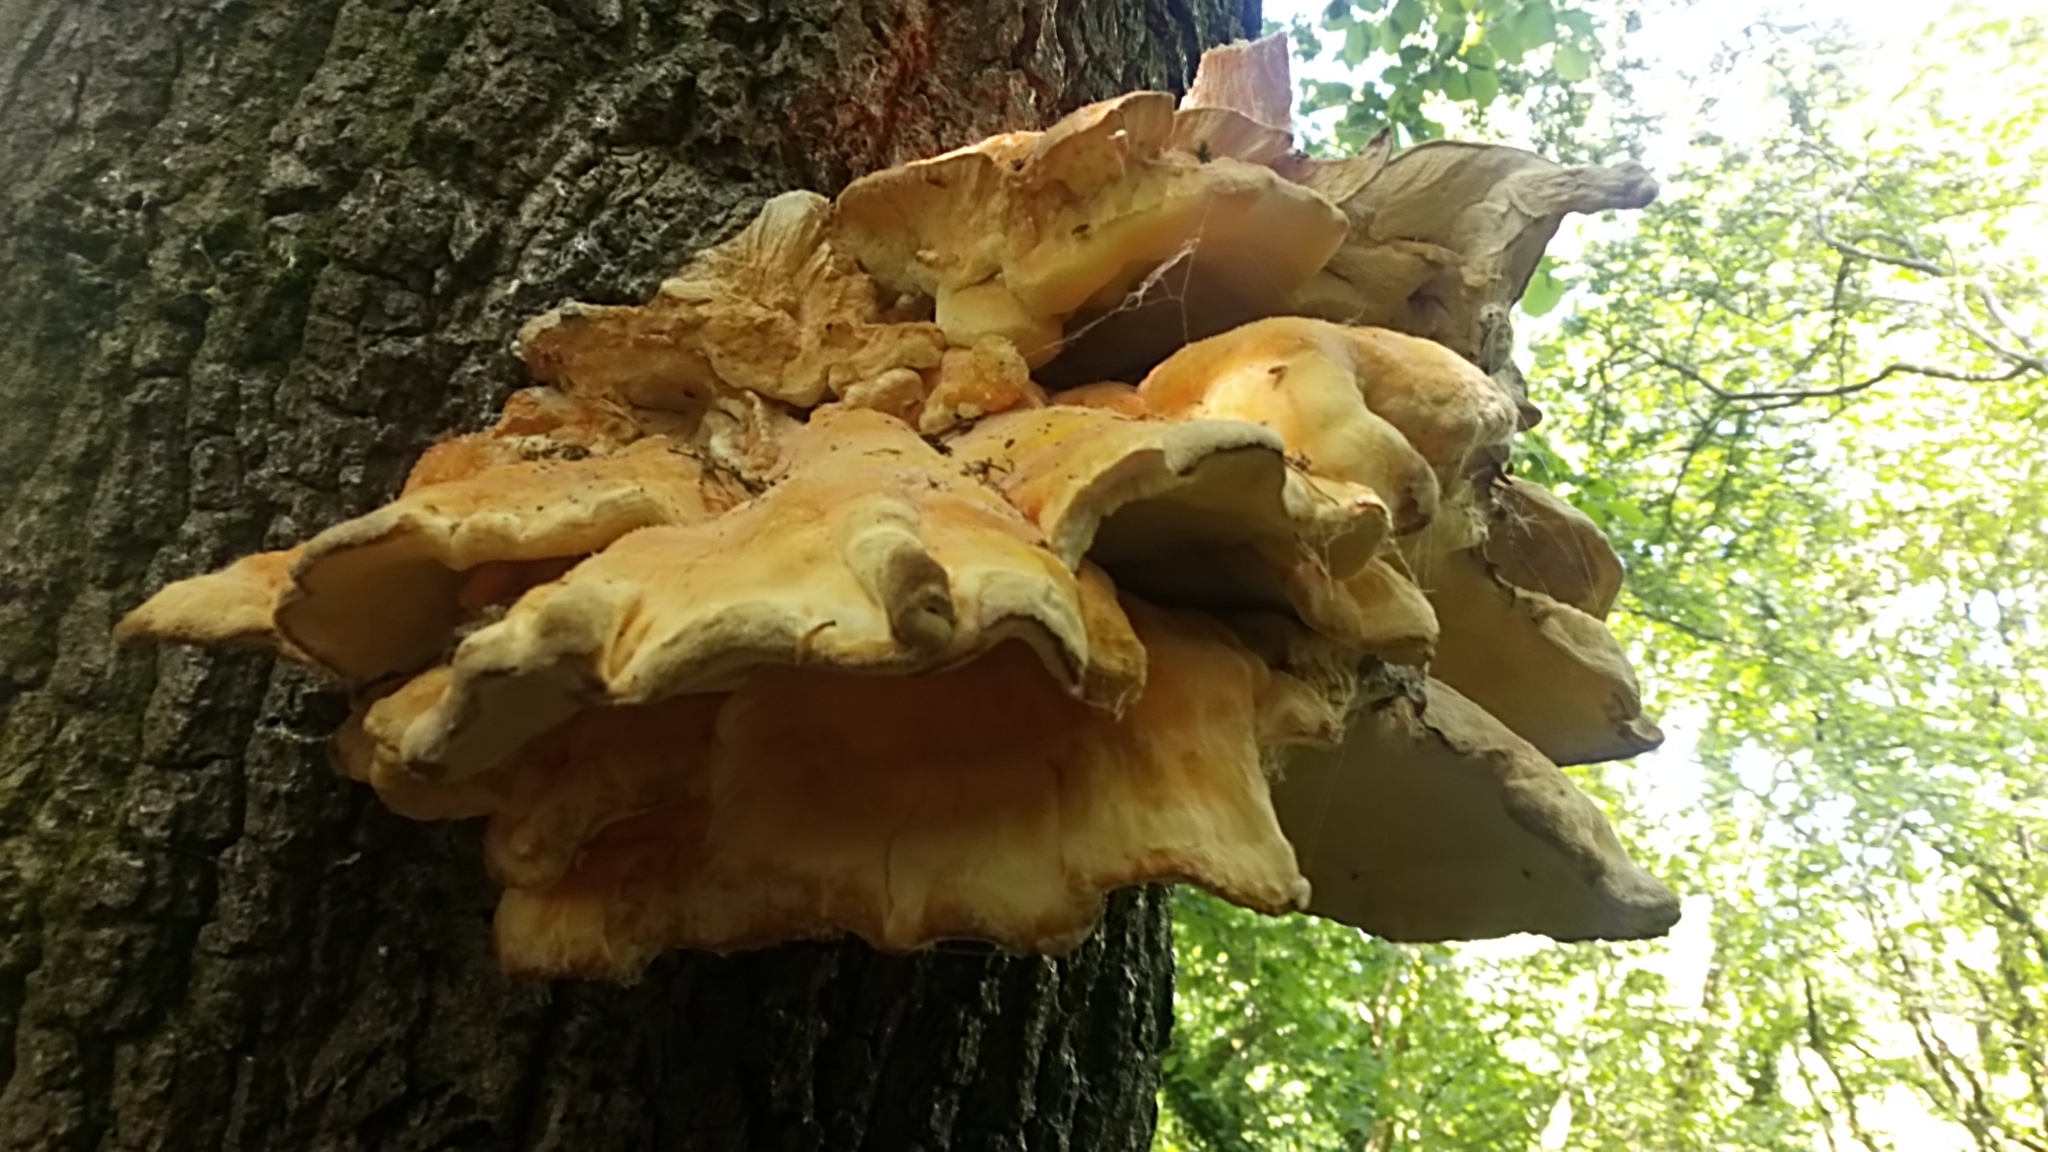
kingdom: Fungi
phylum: Basidiomycota
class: Agaricomycetes
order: Polyporales
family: Laetiporaceae
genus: Laetiporus
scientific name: Laetiporus sulphureus
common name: Chicken of the woods
